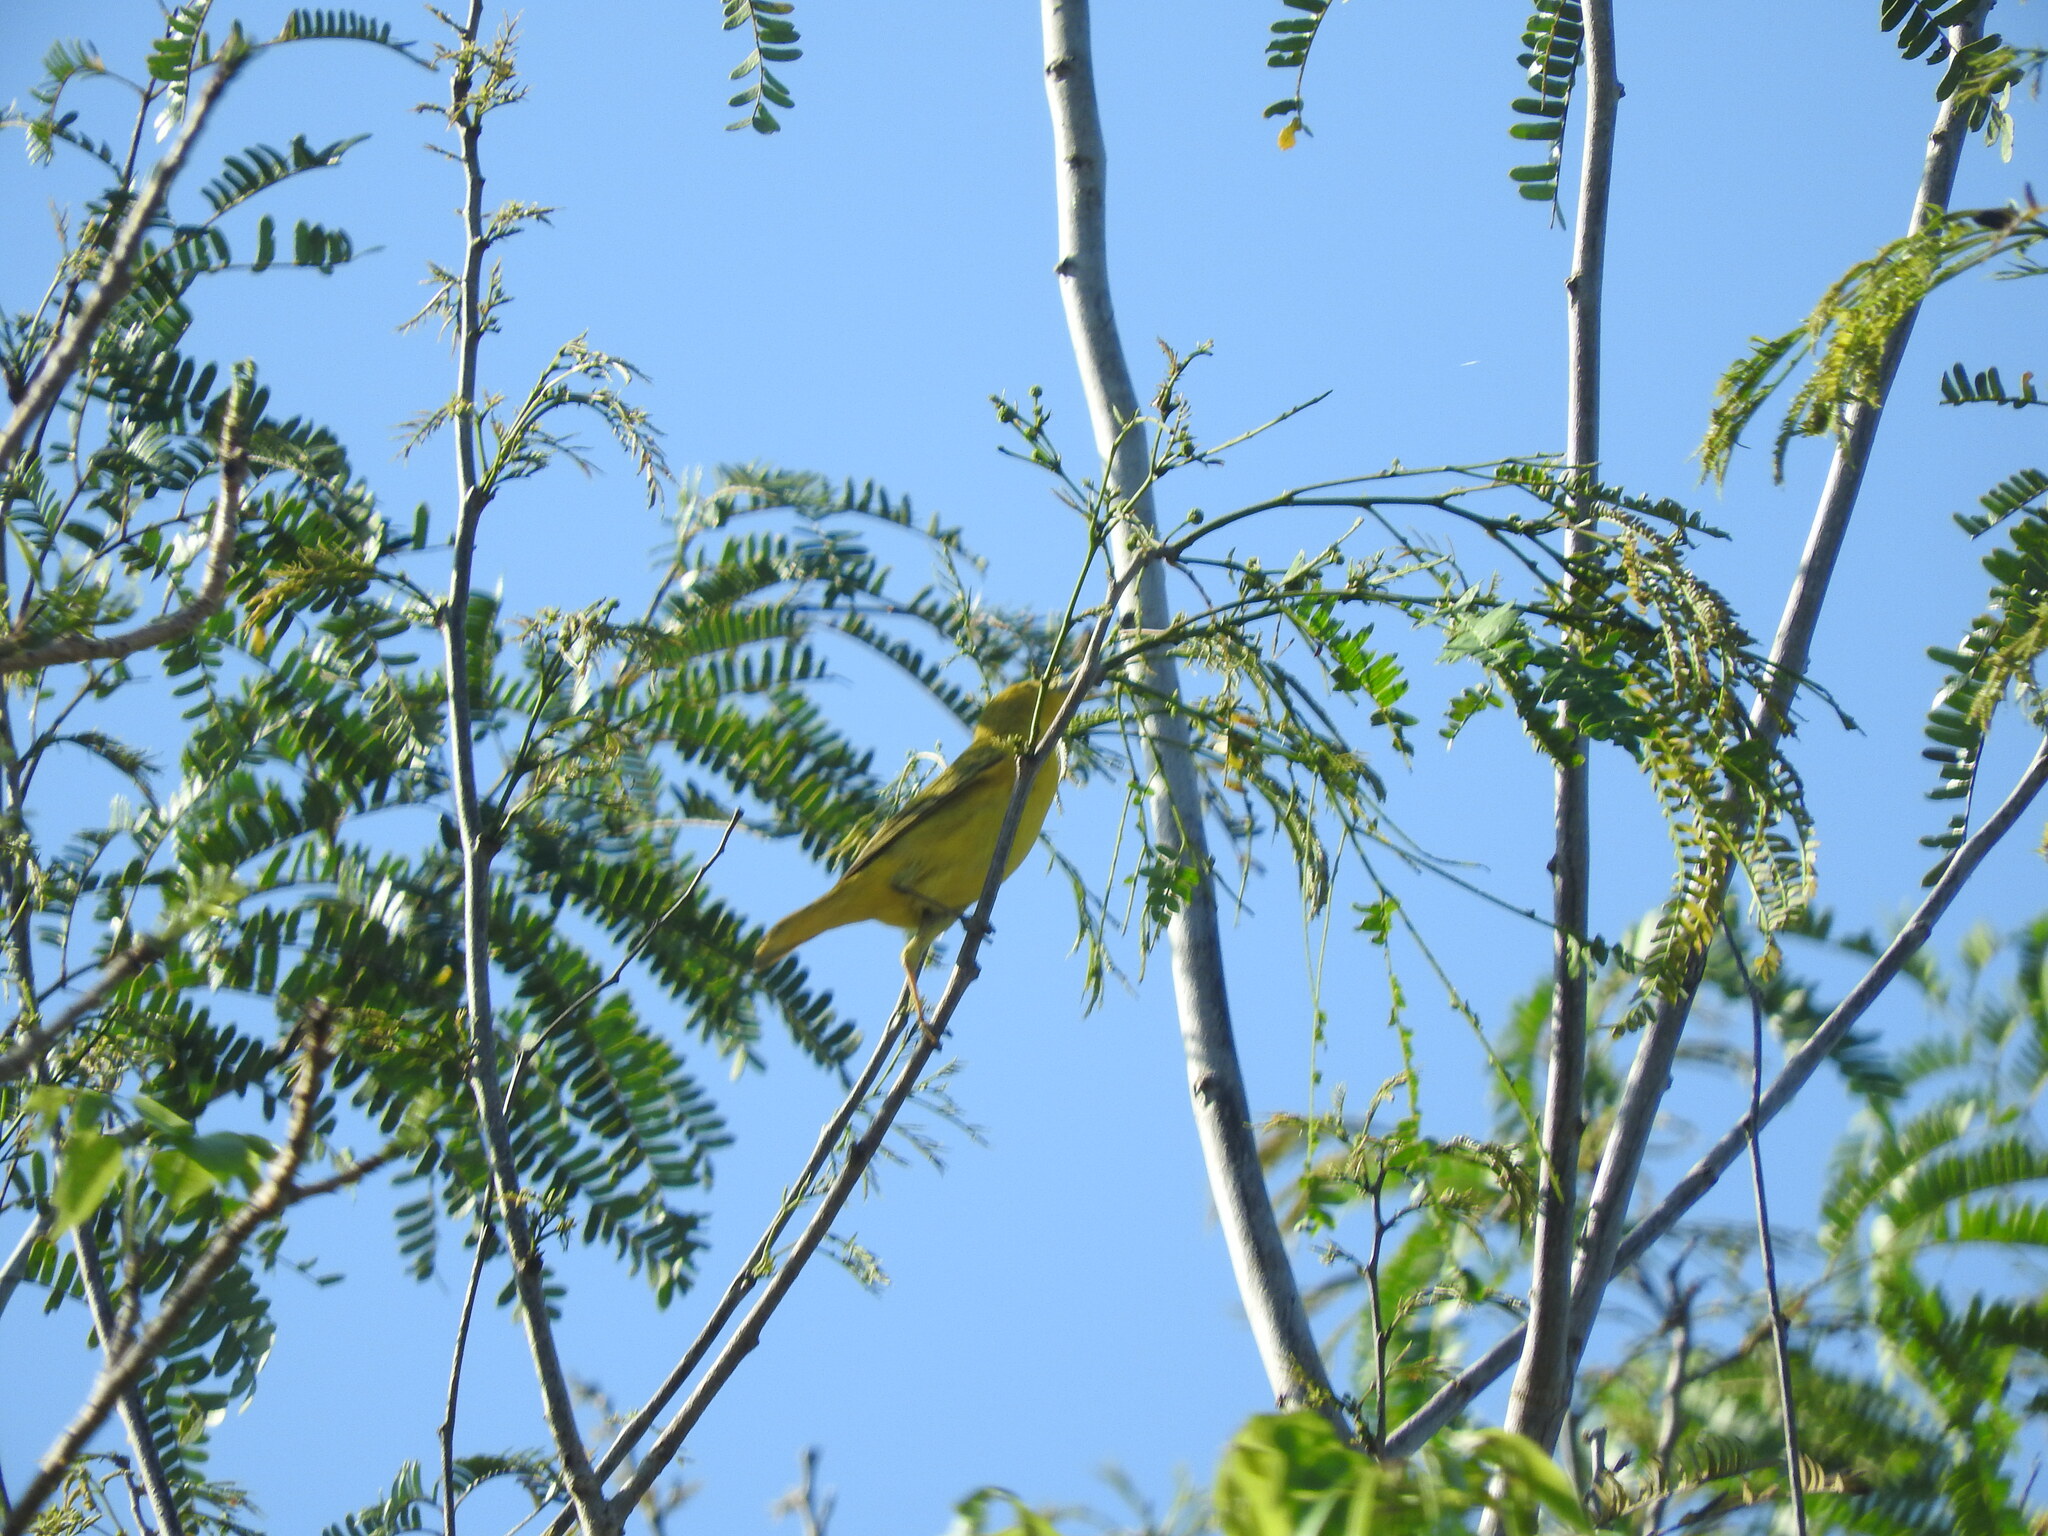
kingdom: Animalia
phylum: Chordata
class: Aves
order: Passeriformes
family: Parulidae
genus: Setophaga
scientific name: Setophaga petechia
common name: Yellow warbler
